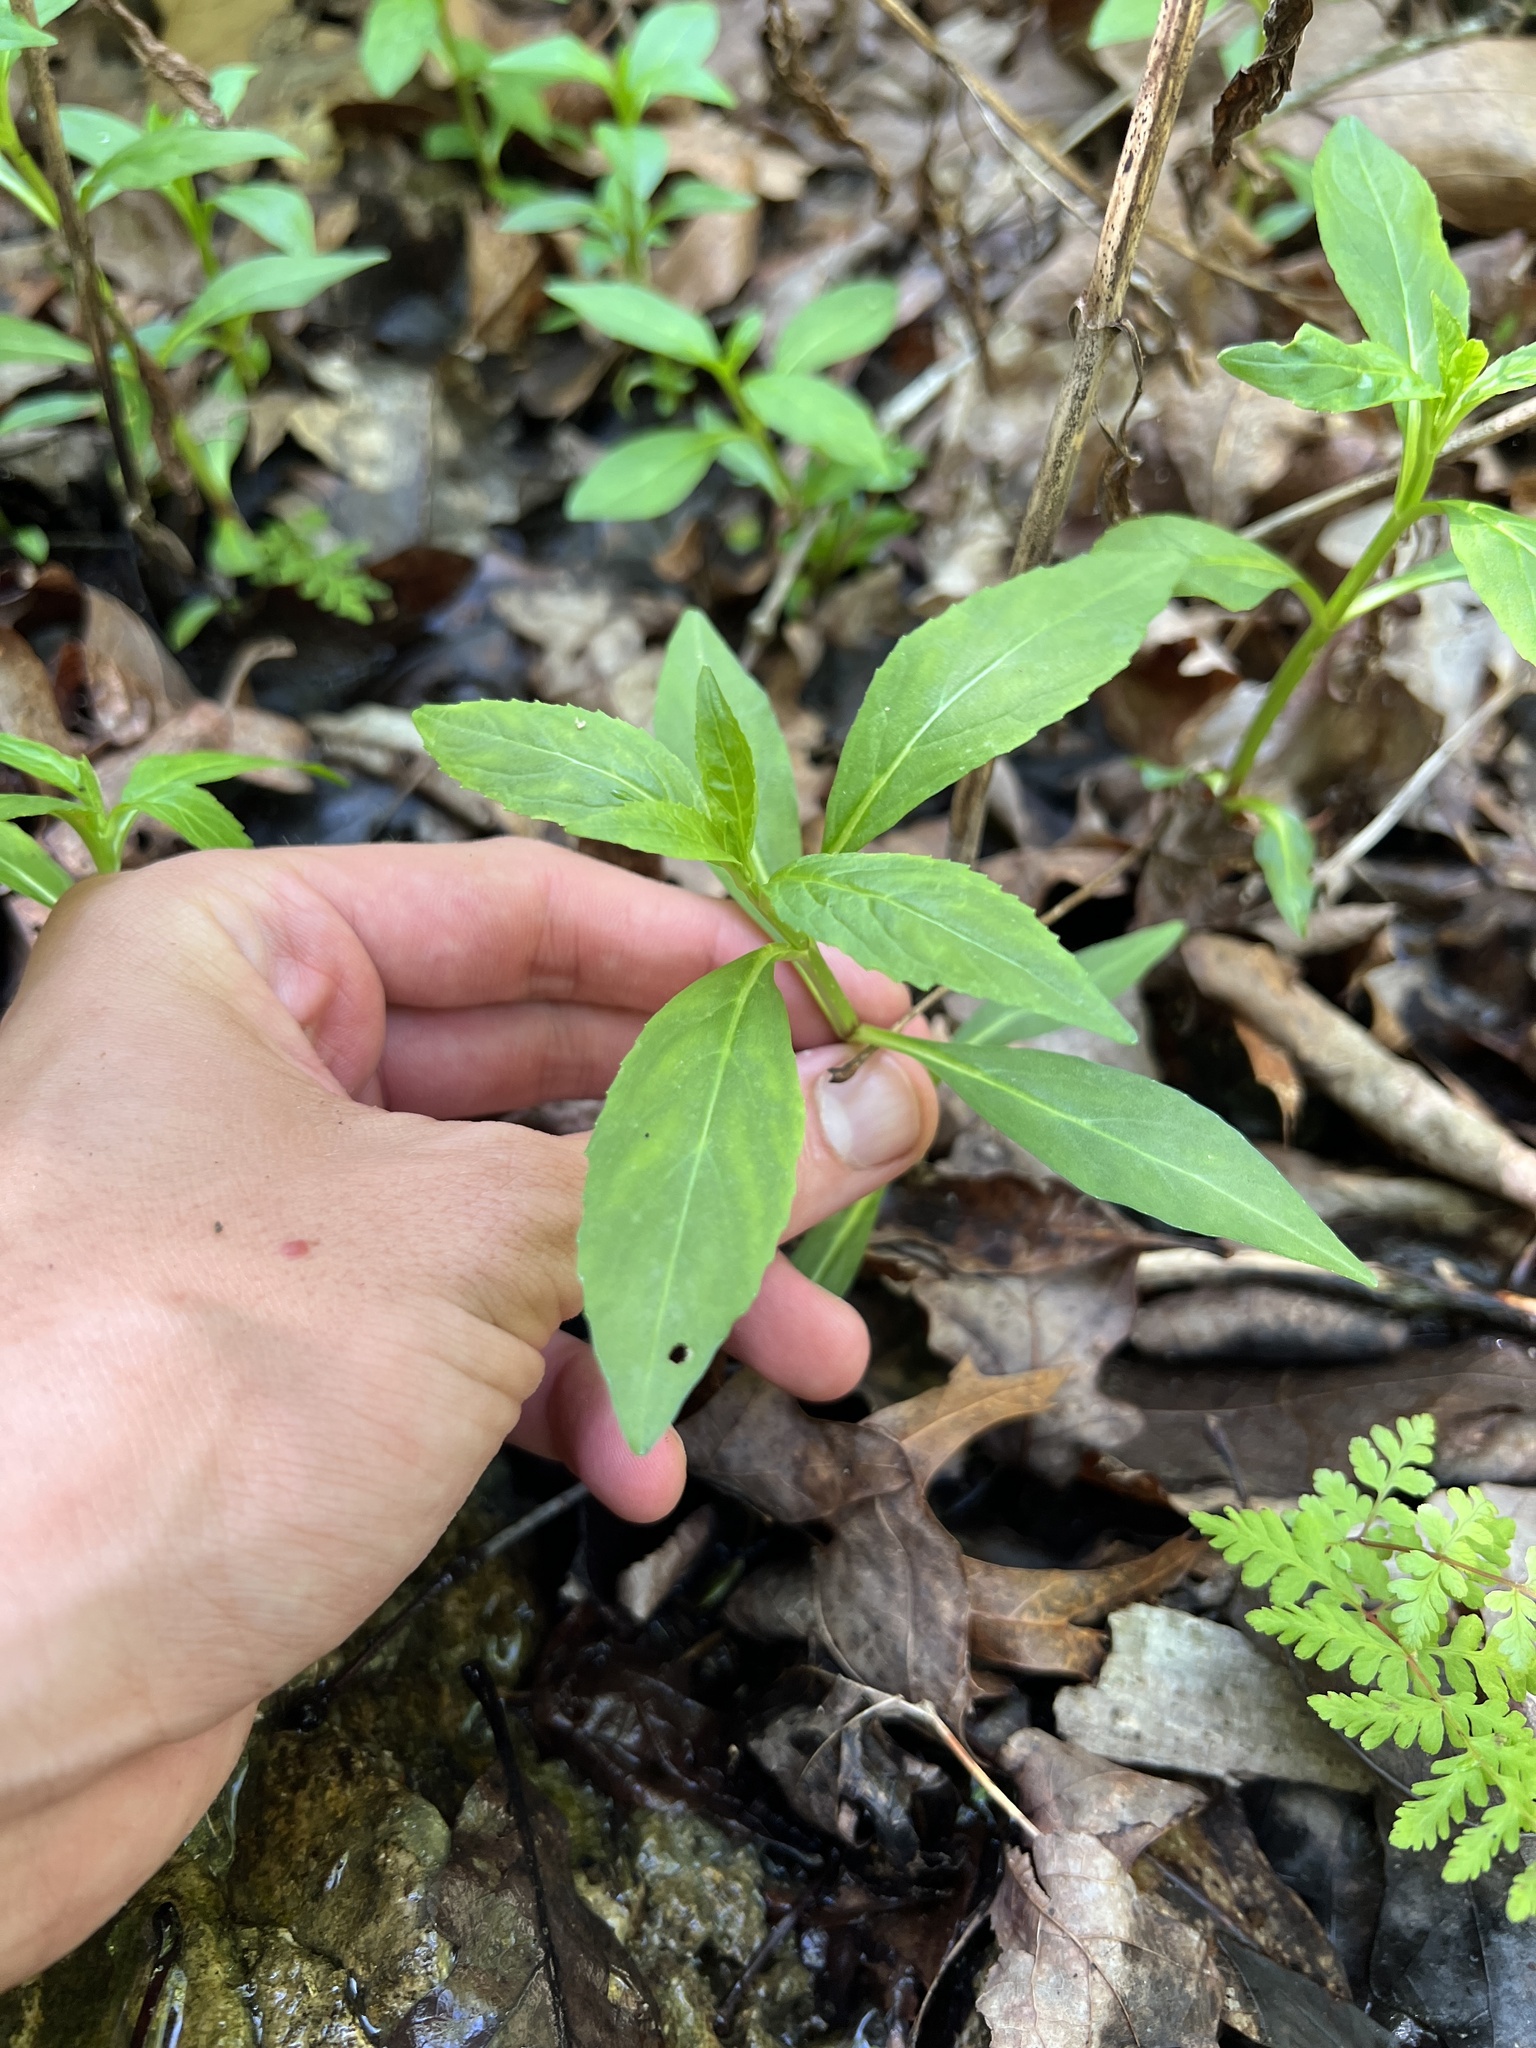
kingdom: Plantae
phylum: Tracheophyta
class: Magnoliopsida
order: Lamiales
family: Phrymaceae
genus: Mimulus
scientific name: Mimulus alatus
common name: Sharp-wing monkey-flower
